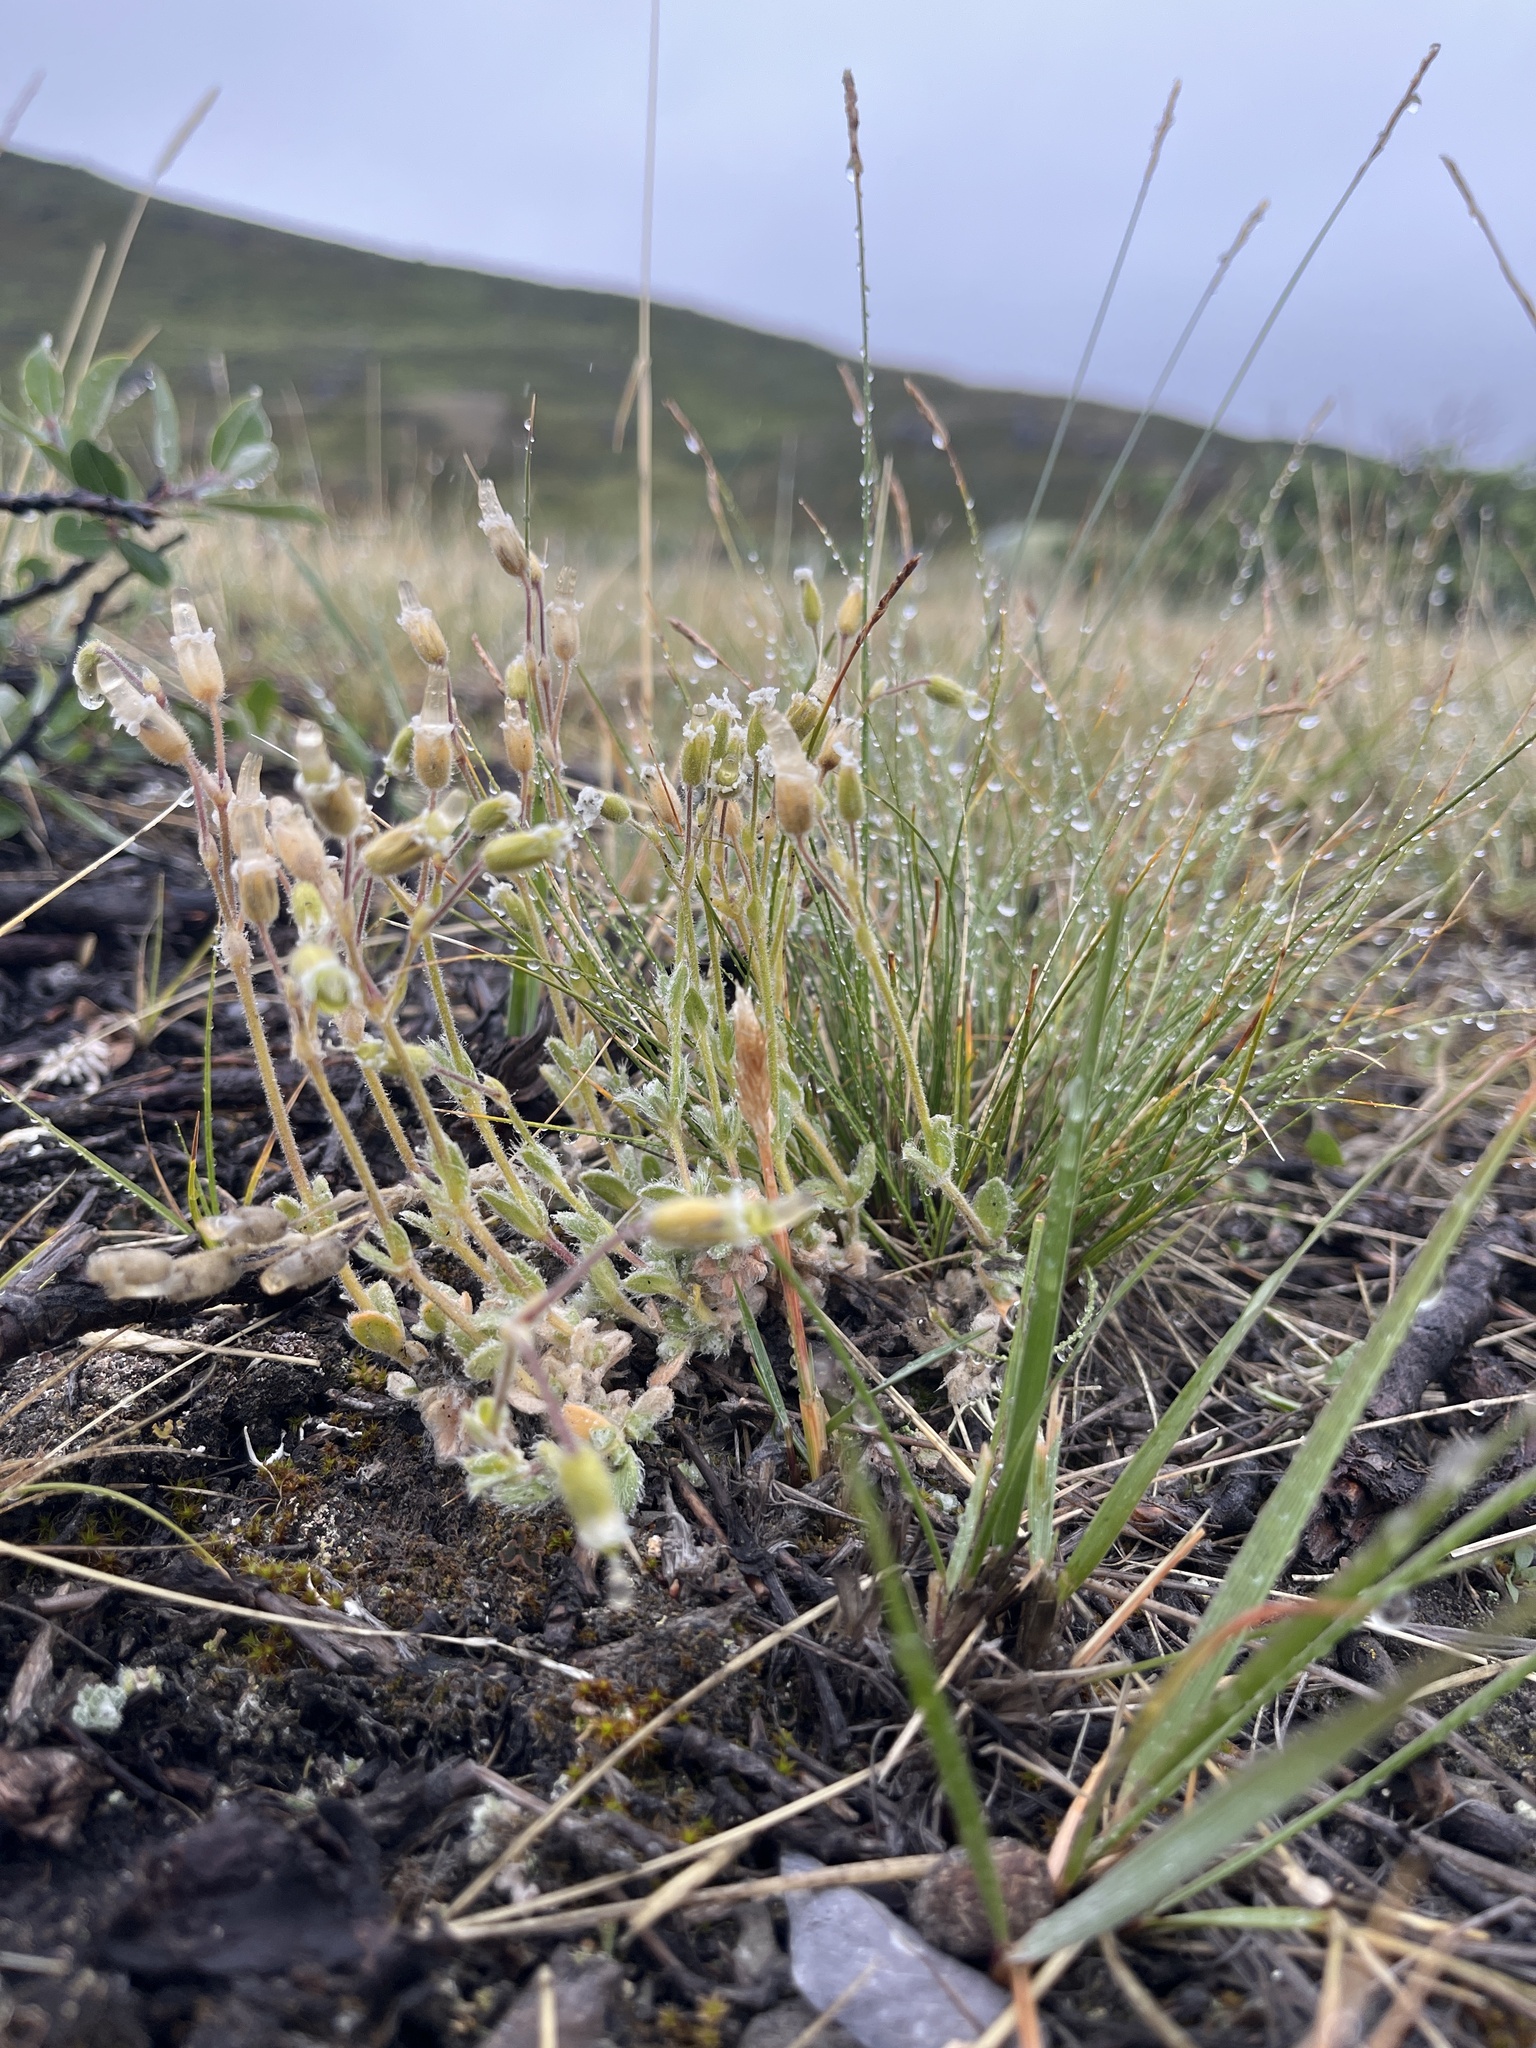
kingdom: Plantae
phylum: Tracheophyta
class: Magnoliopsida
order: Caryophyllales
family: Caryophyllaceae
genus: Cerastium
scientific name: Cerastium alpinum
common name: Alpine mouse-ear
